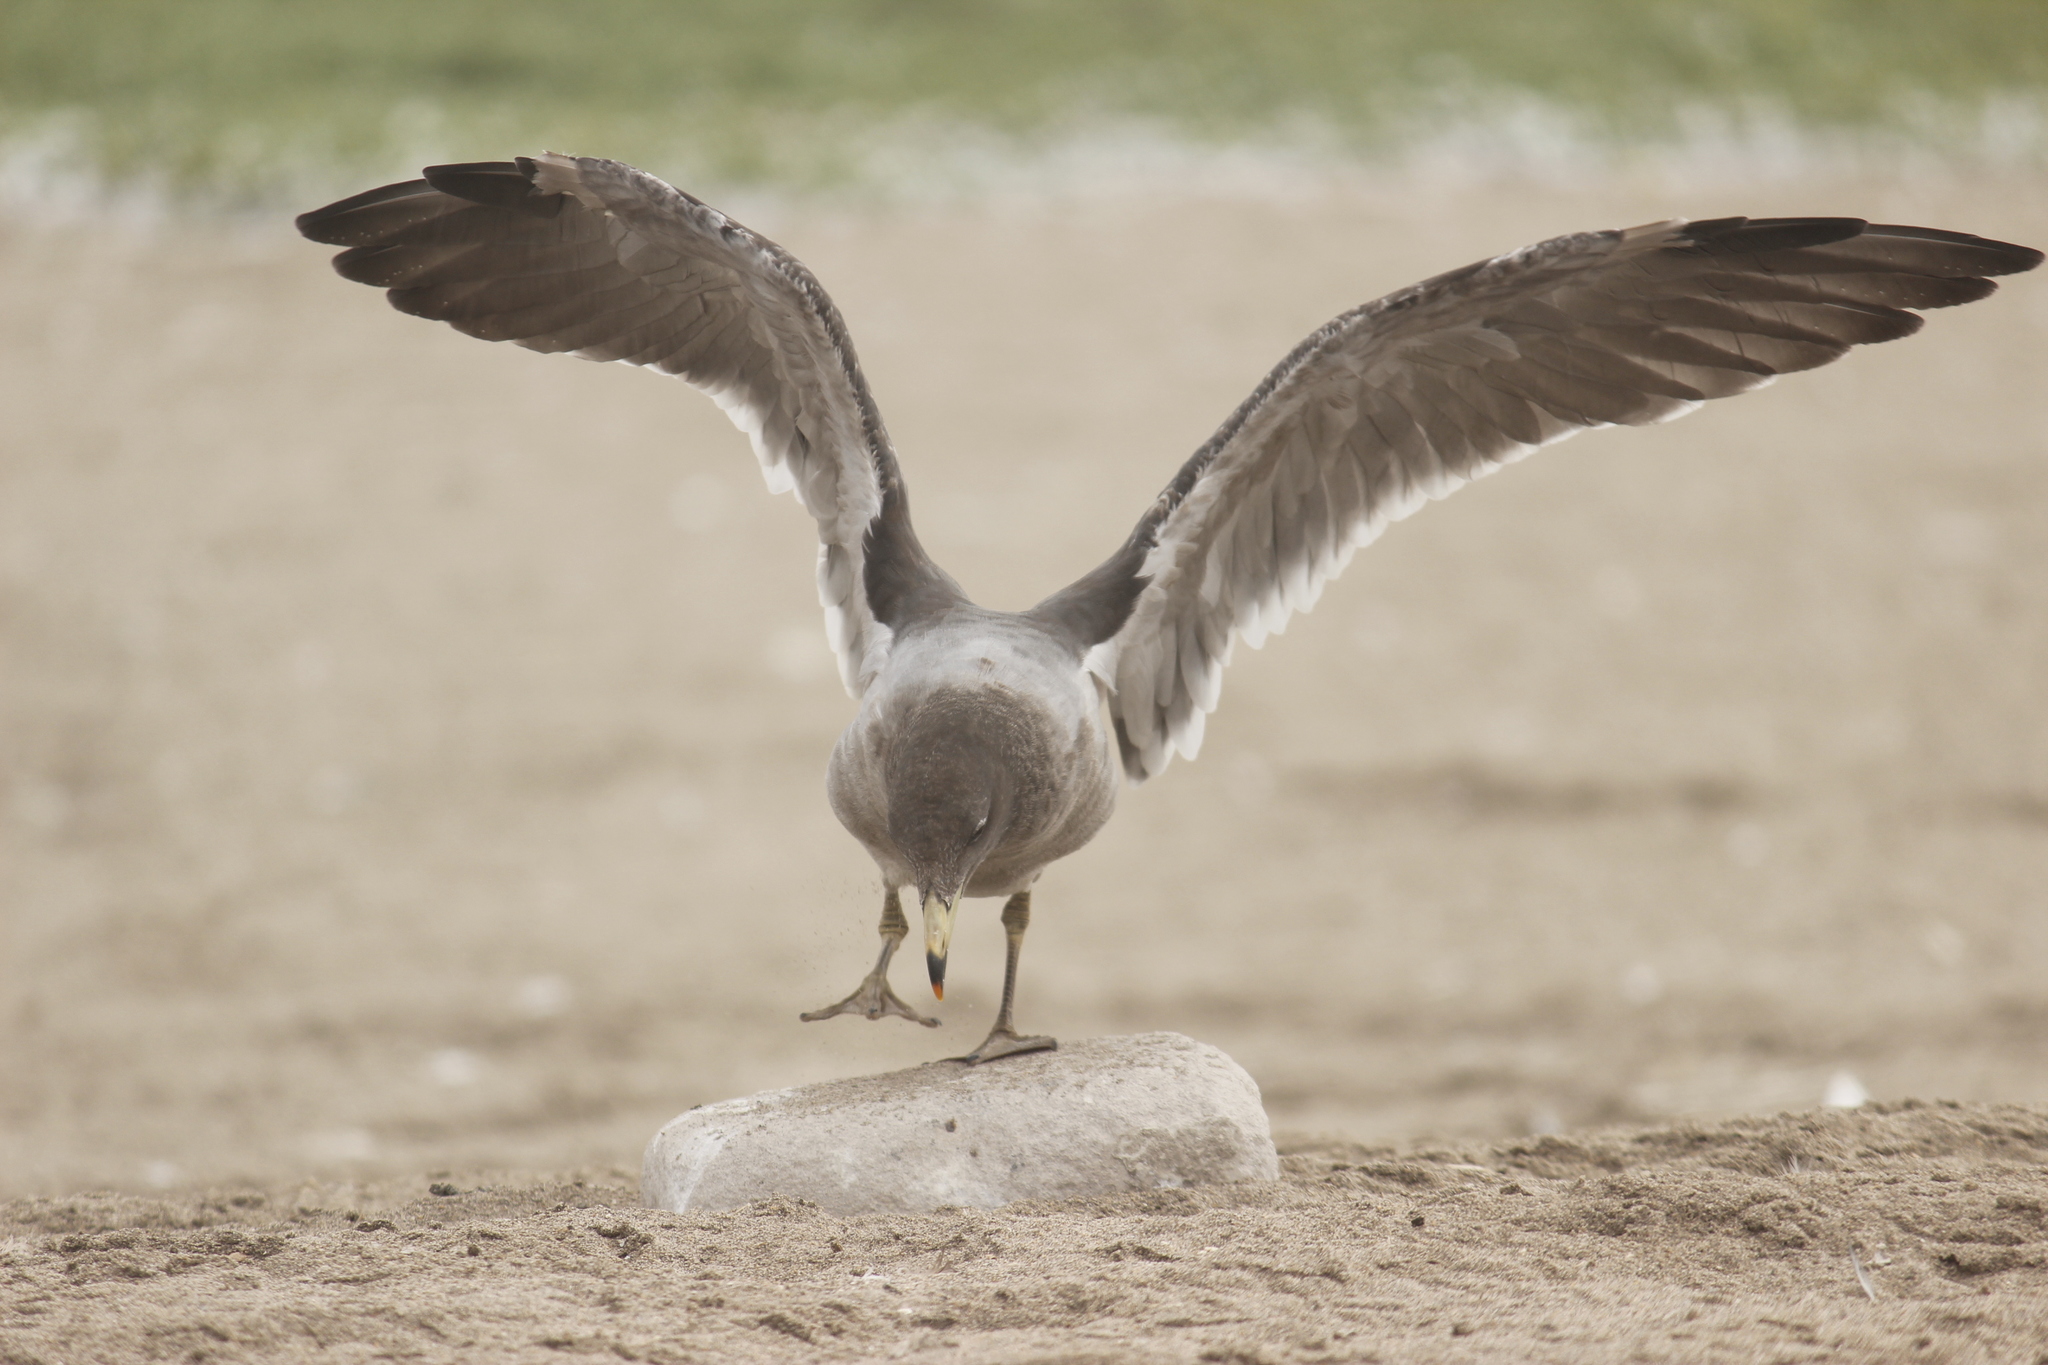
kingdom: Animalia
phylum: Chordata
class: Aves
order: Charadriiformes
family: Laridae
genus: Larus
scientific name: Larus belcheri
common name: Belcher's gull
